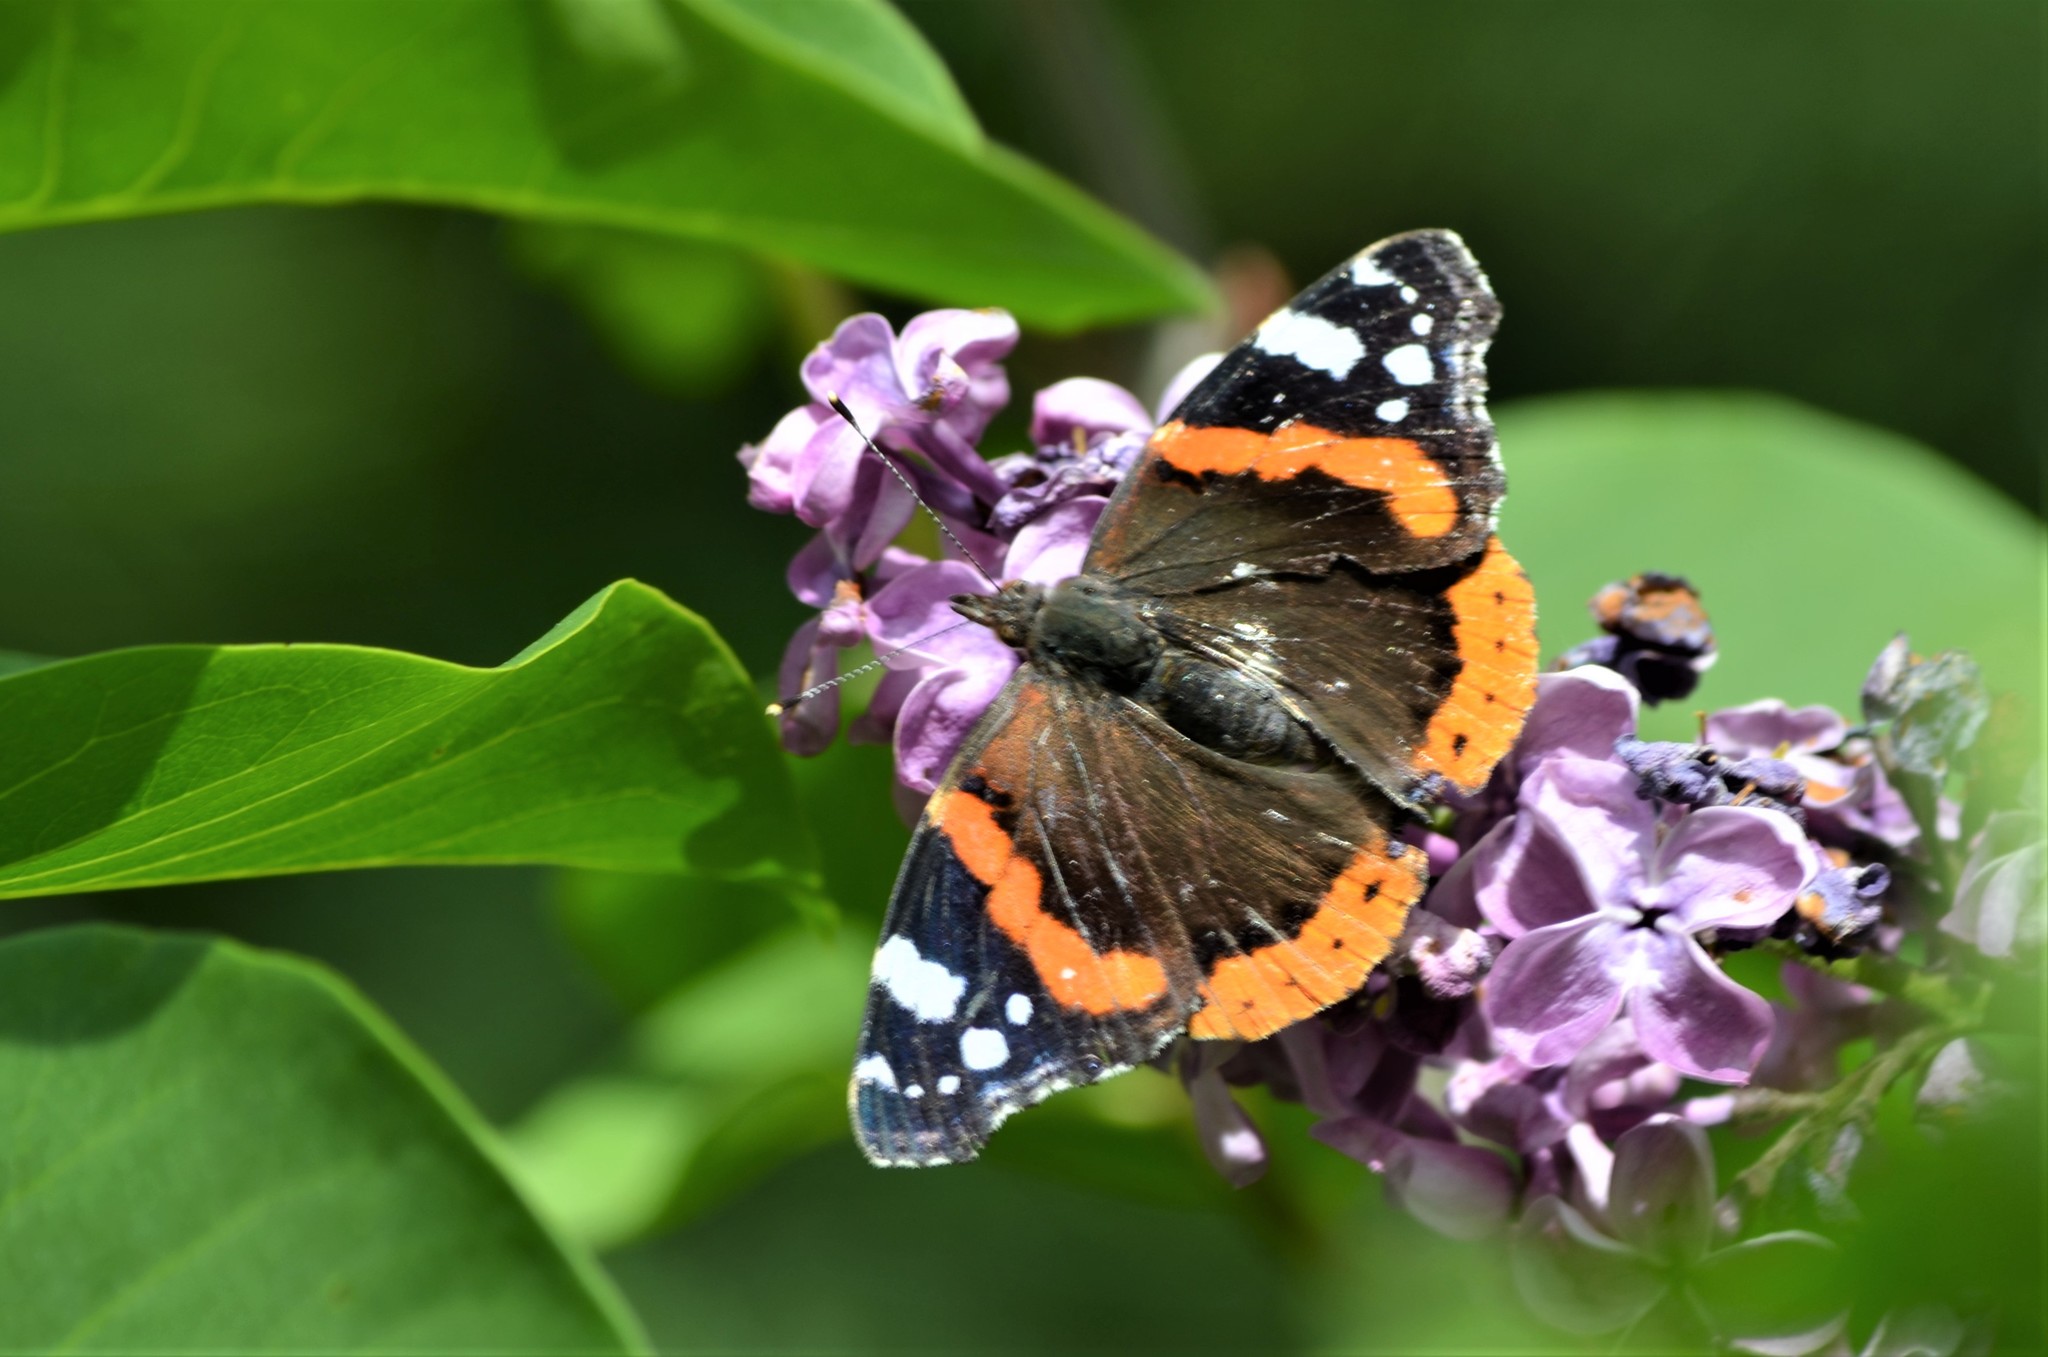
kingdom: Animalia
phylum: Arthropoda
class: Insecta
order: Lepidoptera
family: Nymphalidae
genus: Vanessa
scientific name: Vanessa atalanta
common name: Red admiral
